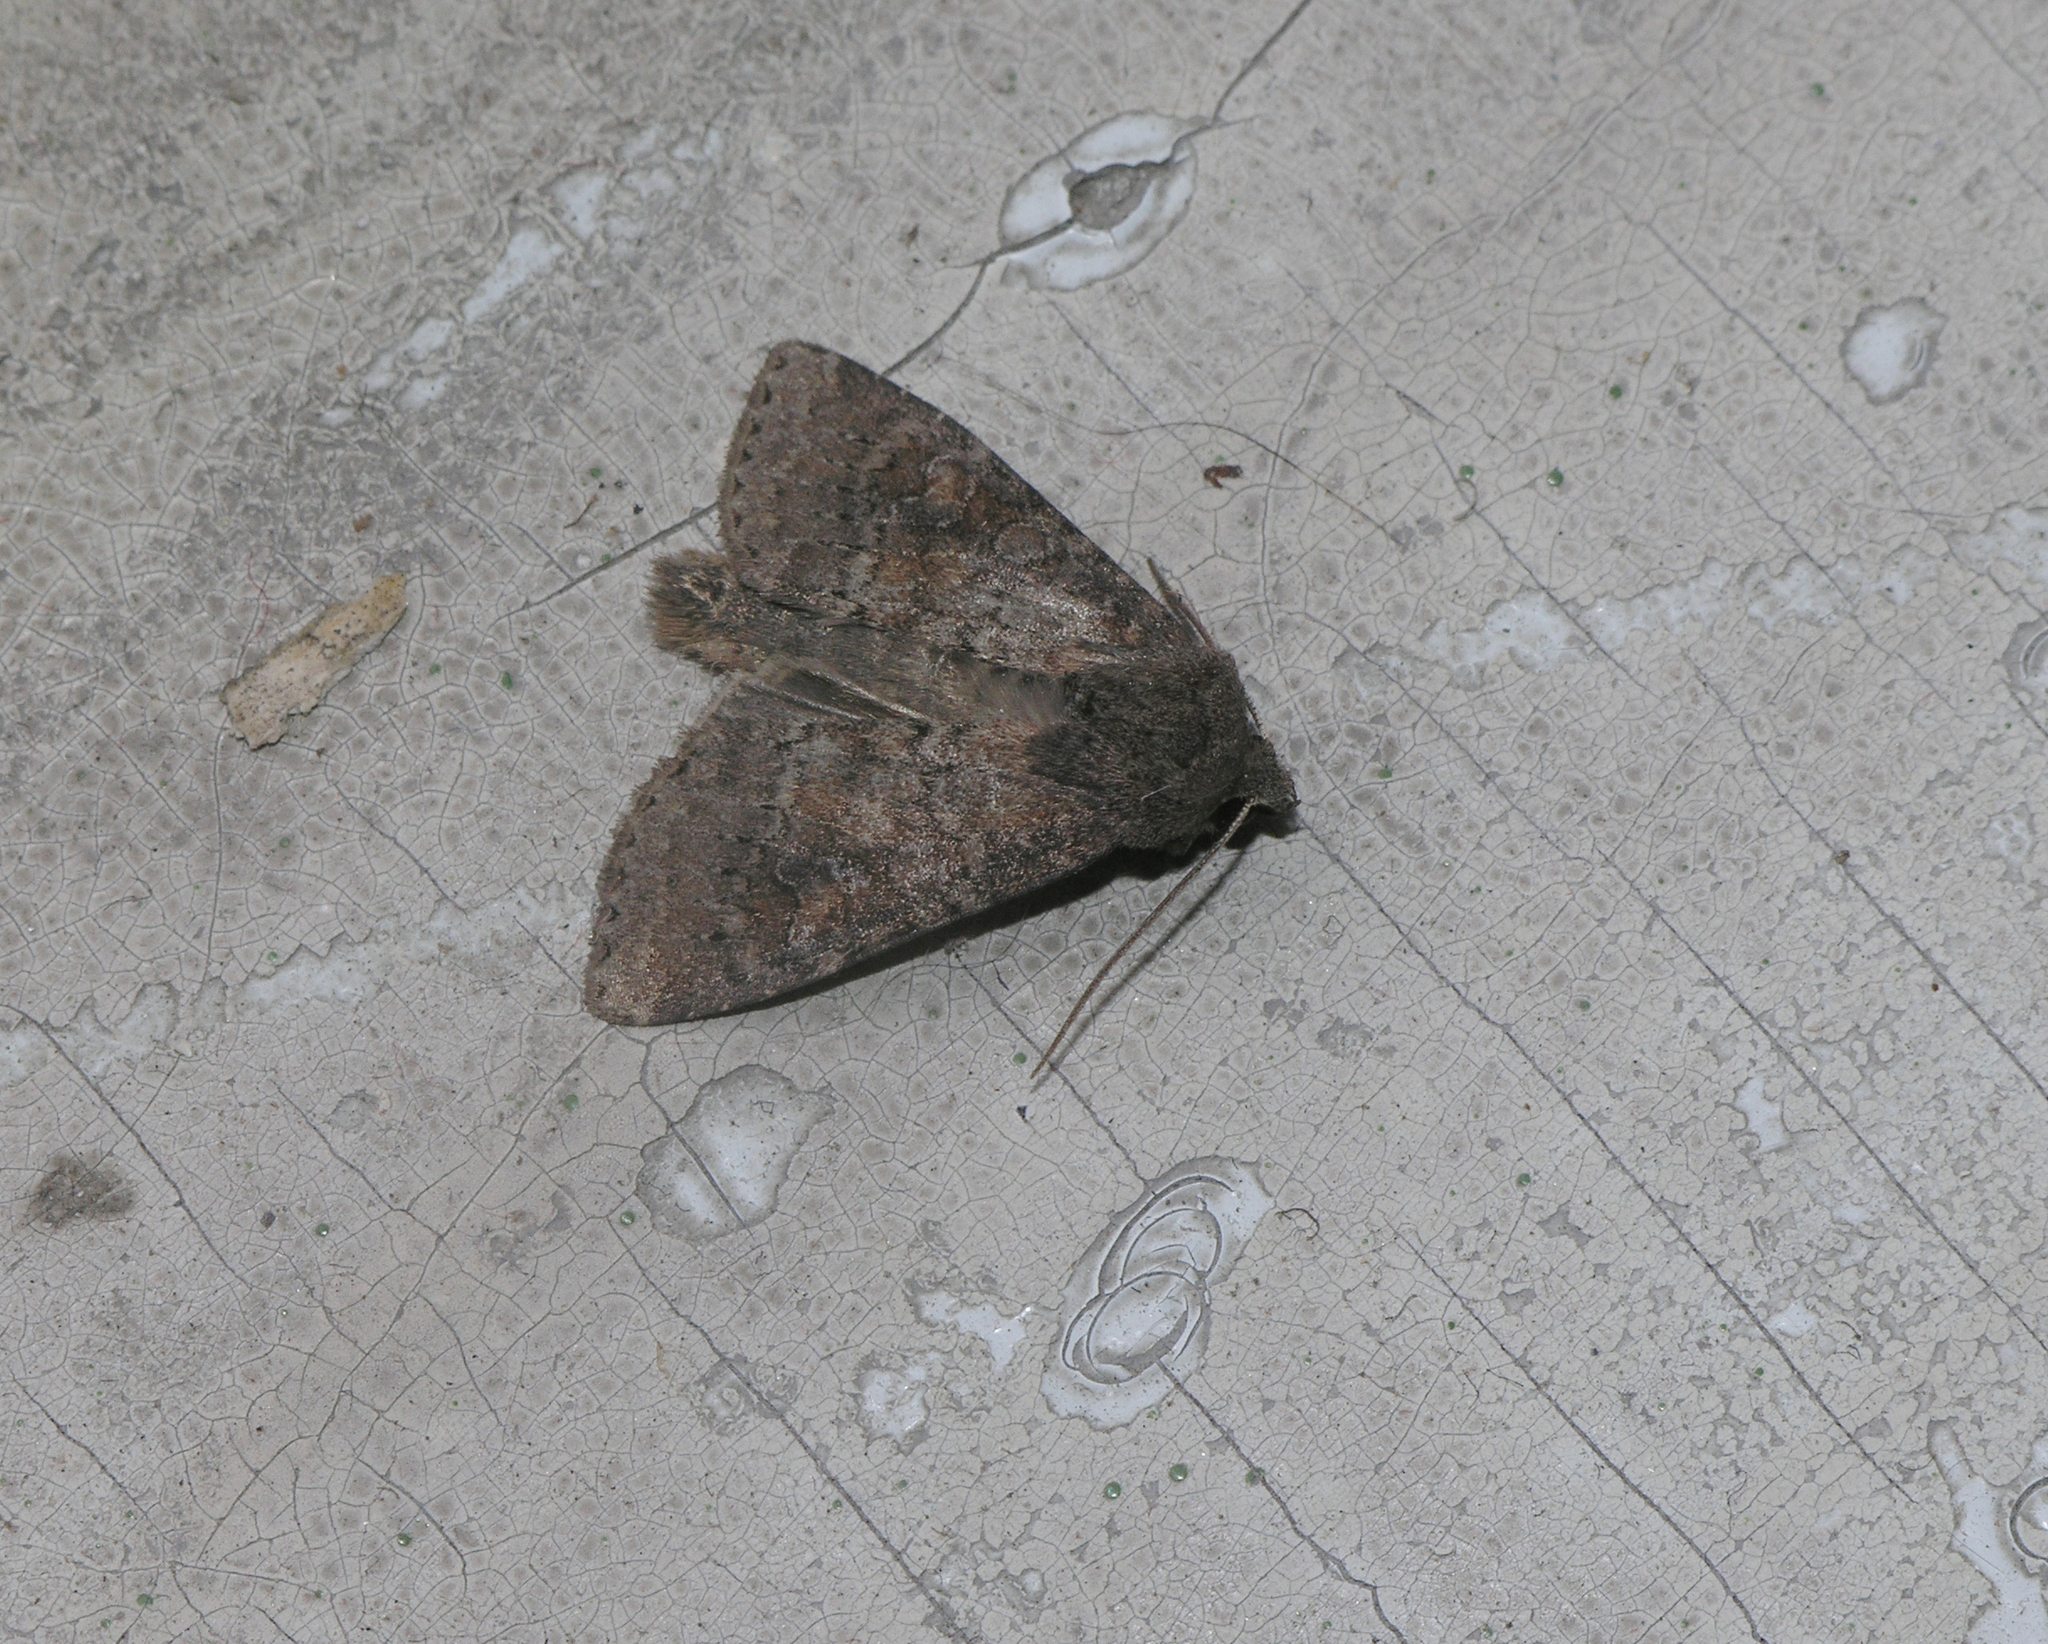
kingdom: Animalia
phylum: Arthropoda
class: Insecta
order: Lepidoptera
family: Noctuidae
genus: Parastichtis
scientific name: Parastichtis suspecta
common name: Suspected
